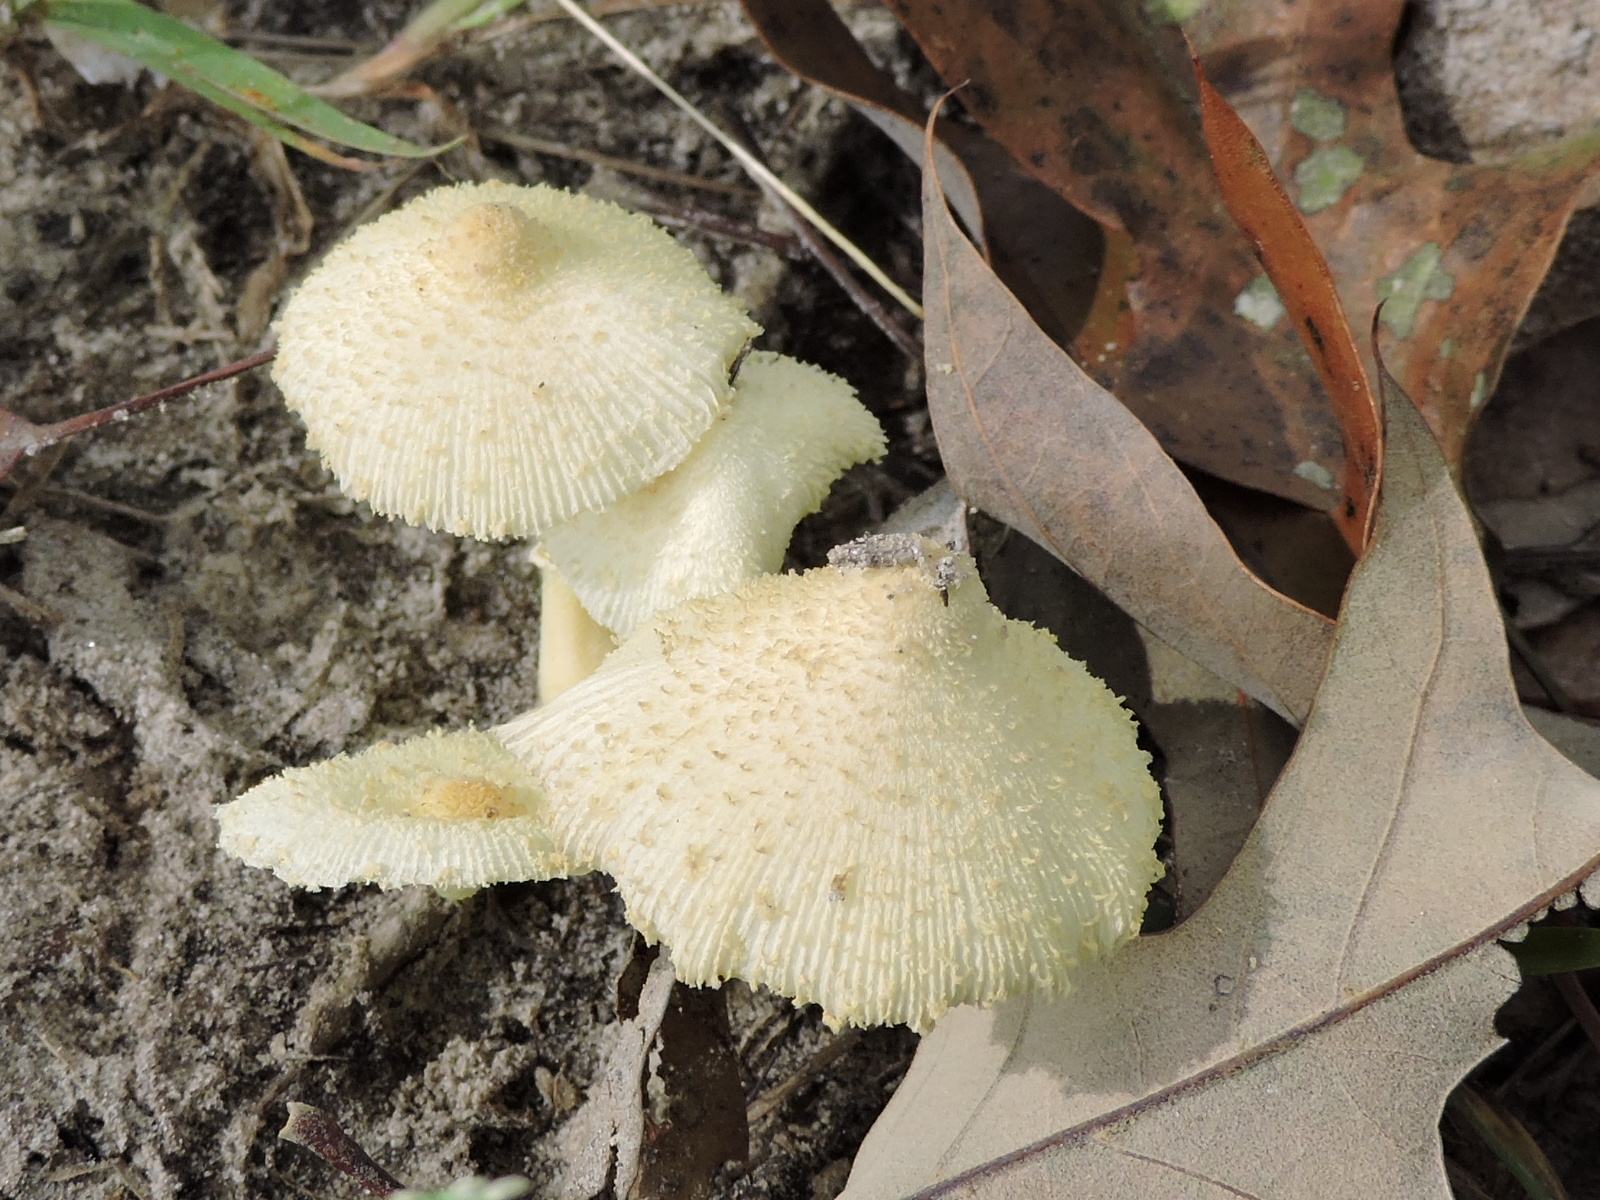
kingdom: Fungi
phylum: Basidiomycota
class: Agaricomycetes
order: Agaricales
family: Agaricaceae
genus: Leucocoprinus
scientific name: Leucocoprinus birnbaumii
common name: Plantpot dapperling
